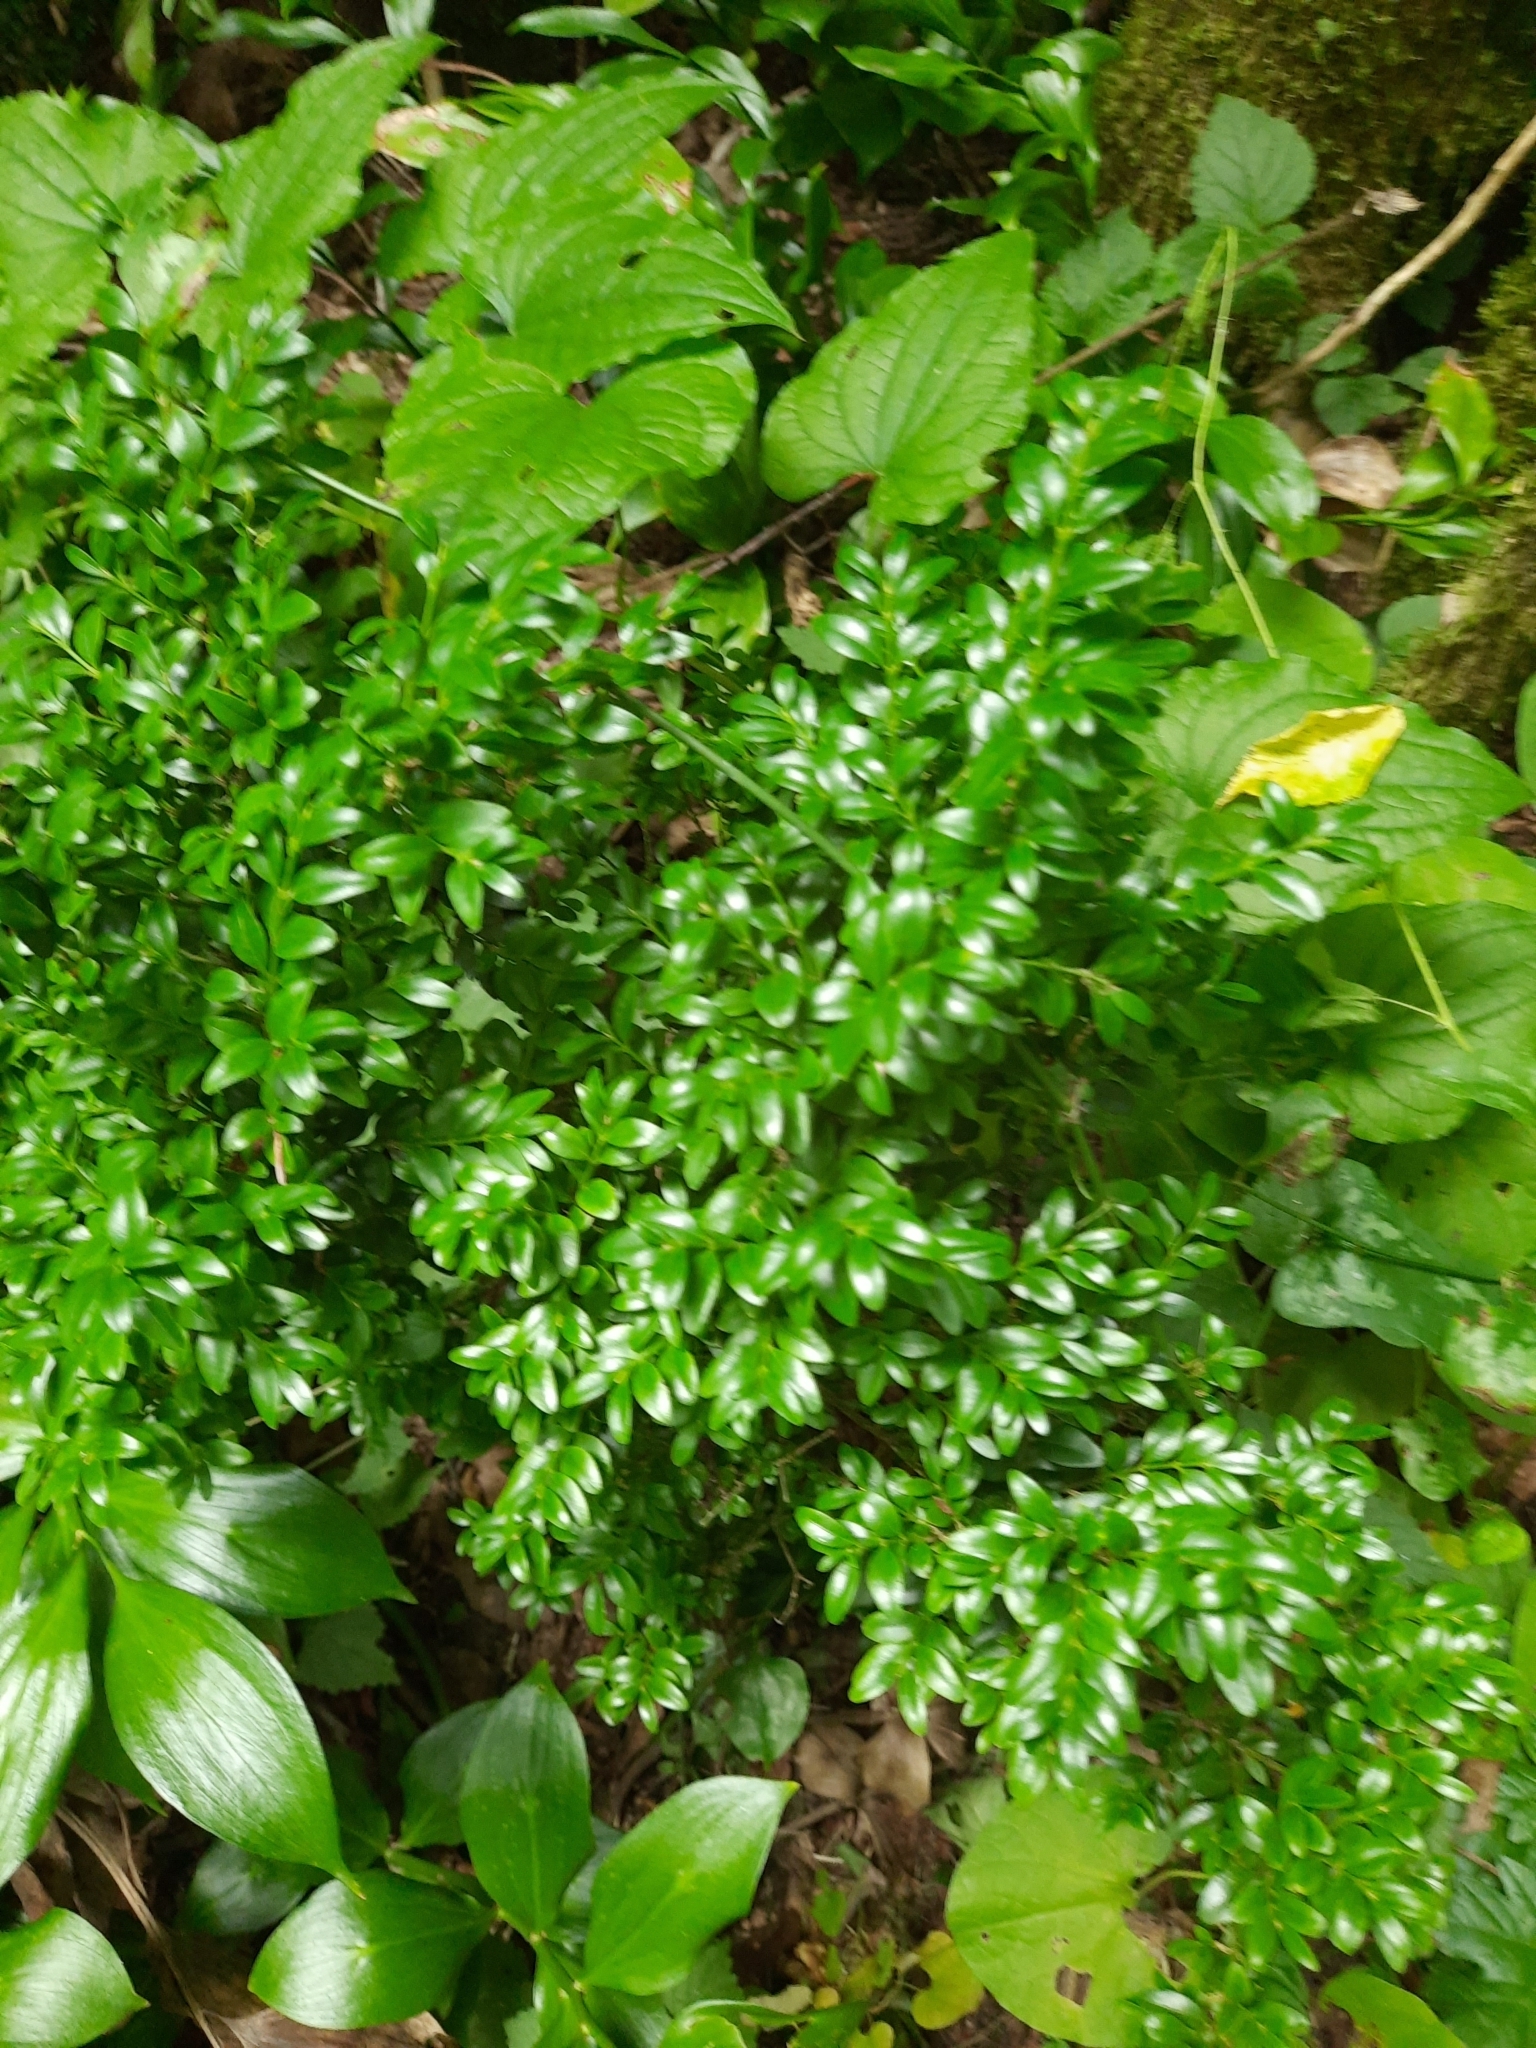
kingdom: Plantae
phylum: Tracheophyta
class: Magnoliopsida
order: Buxales
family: Buxaceae
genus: Buxus
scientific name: Buxus sempervirens
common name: Box
